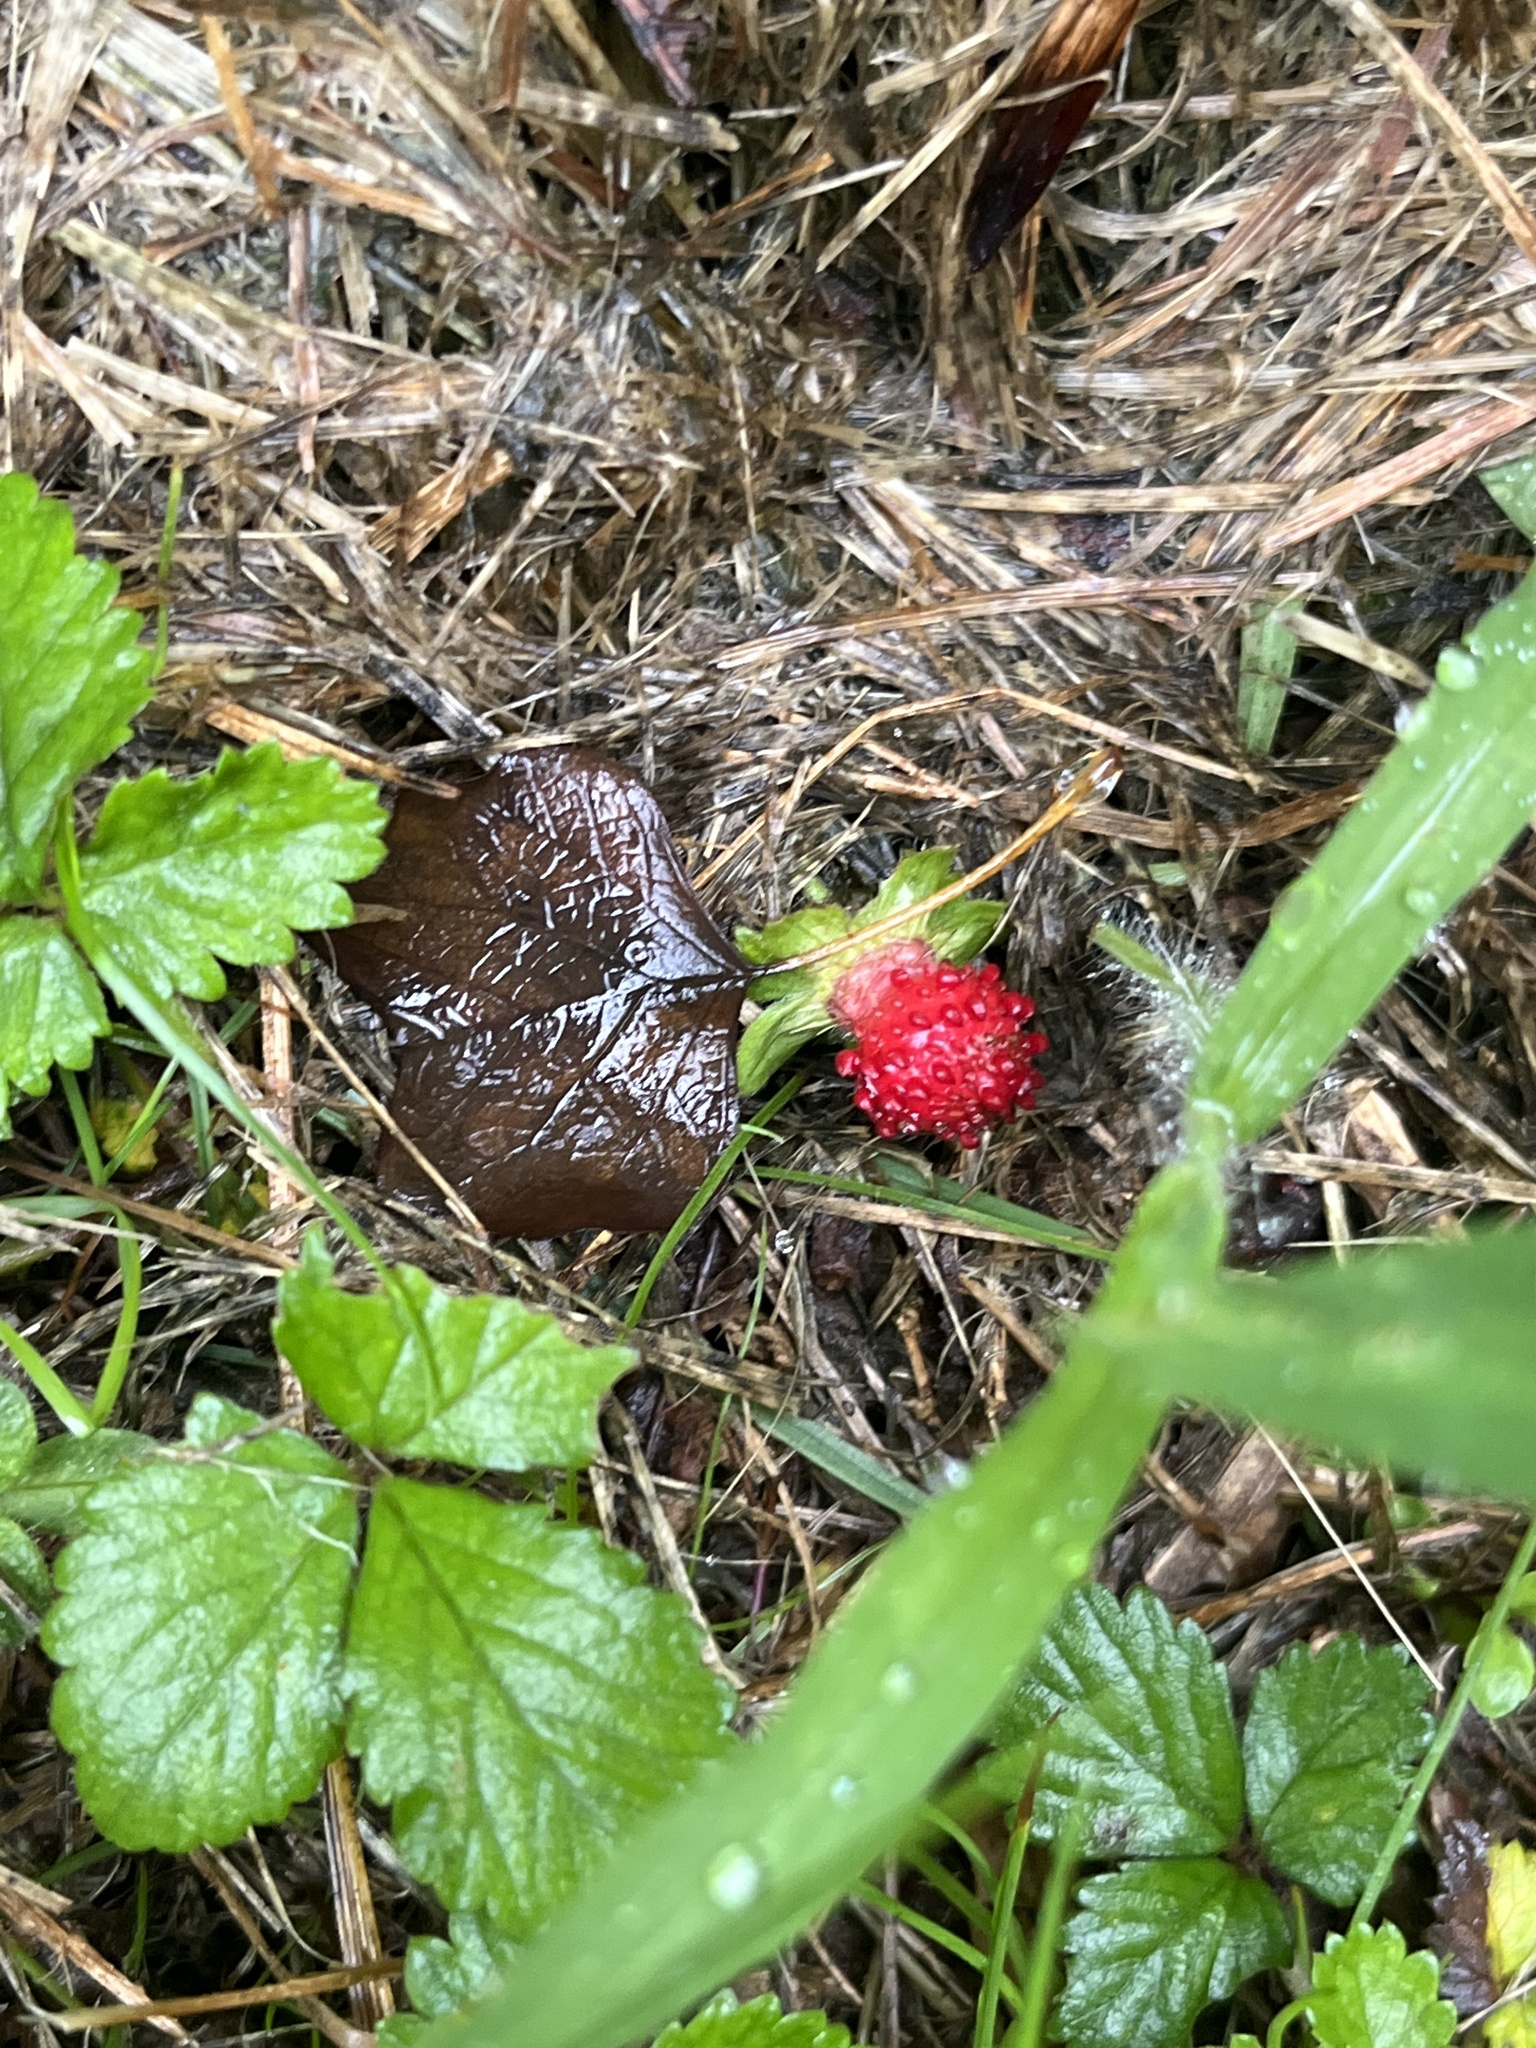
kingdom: Plantae
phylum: Tracheophyta
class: Magnoliopsida
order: Rosales
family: Rosaceae
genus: Potentilla
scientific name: Potentilla indica
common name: Yellow-flowered strawberry
